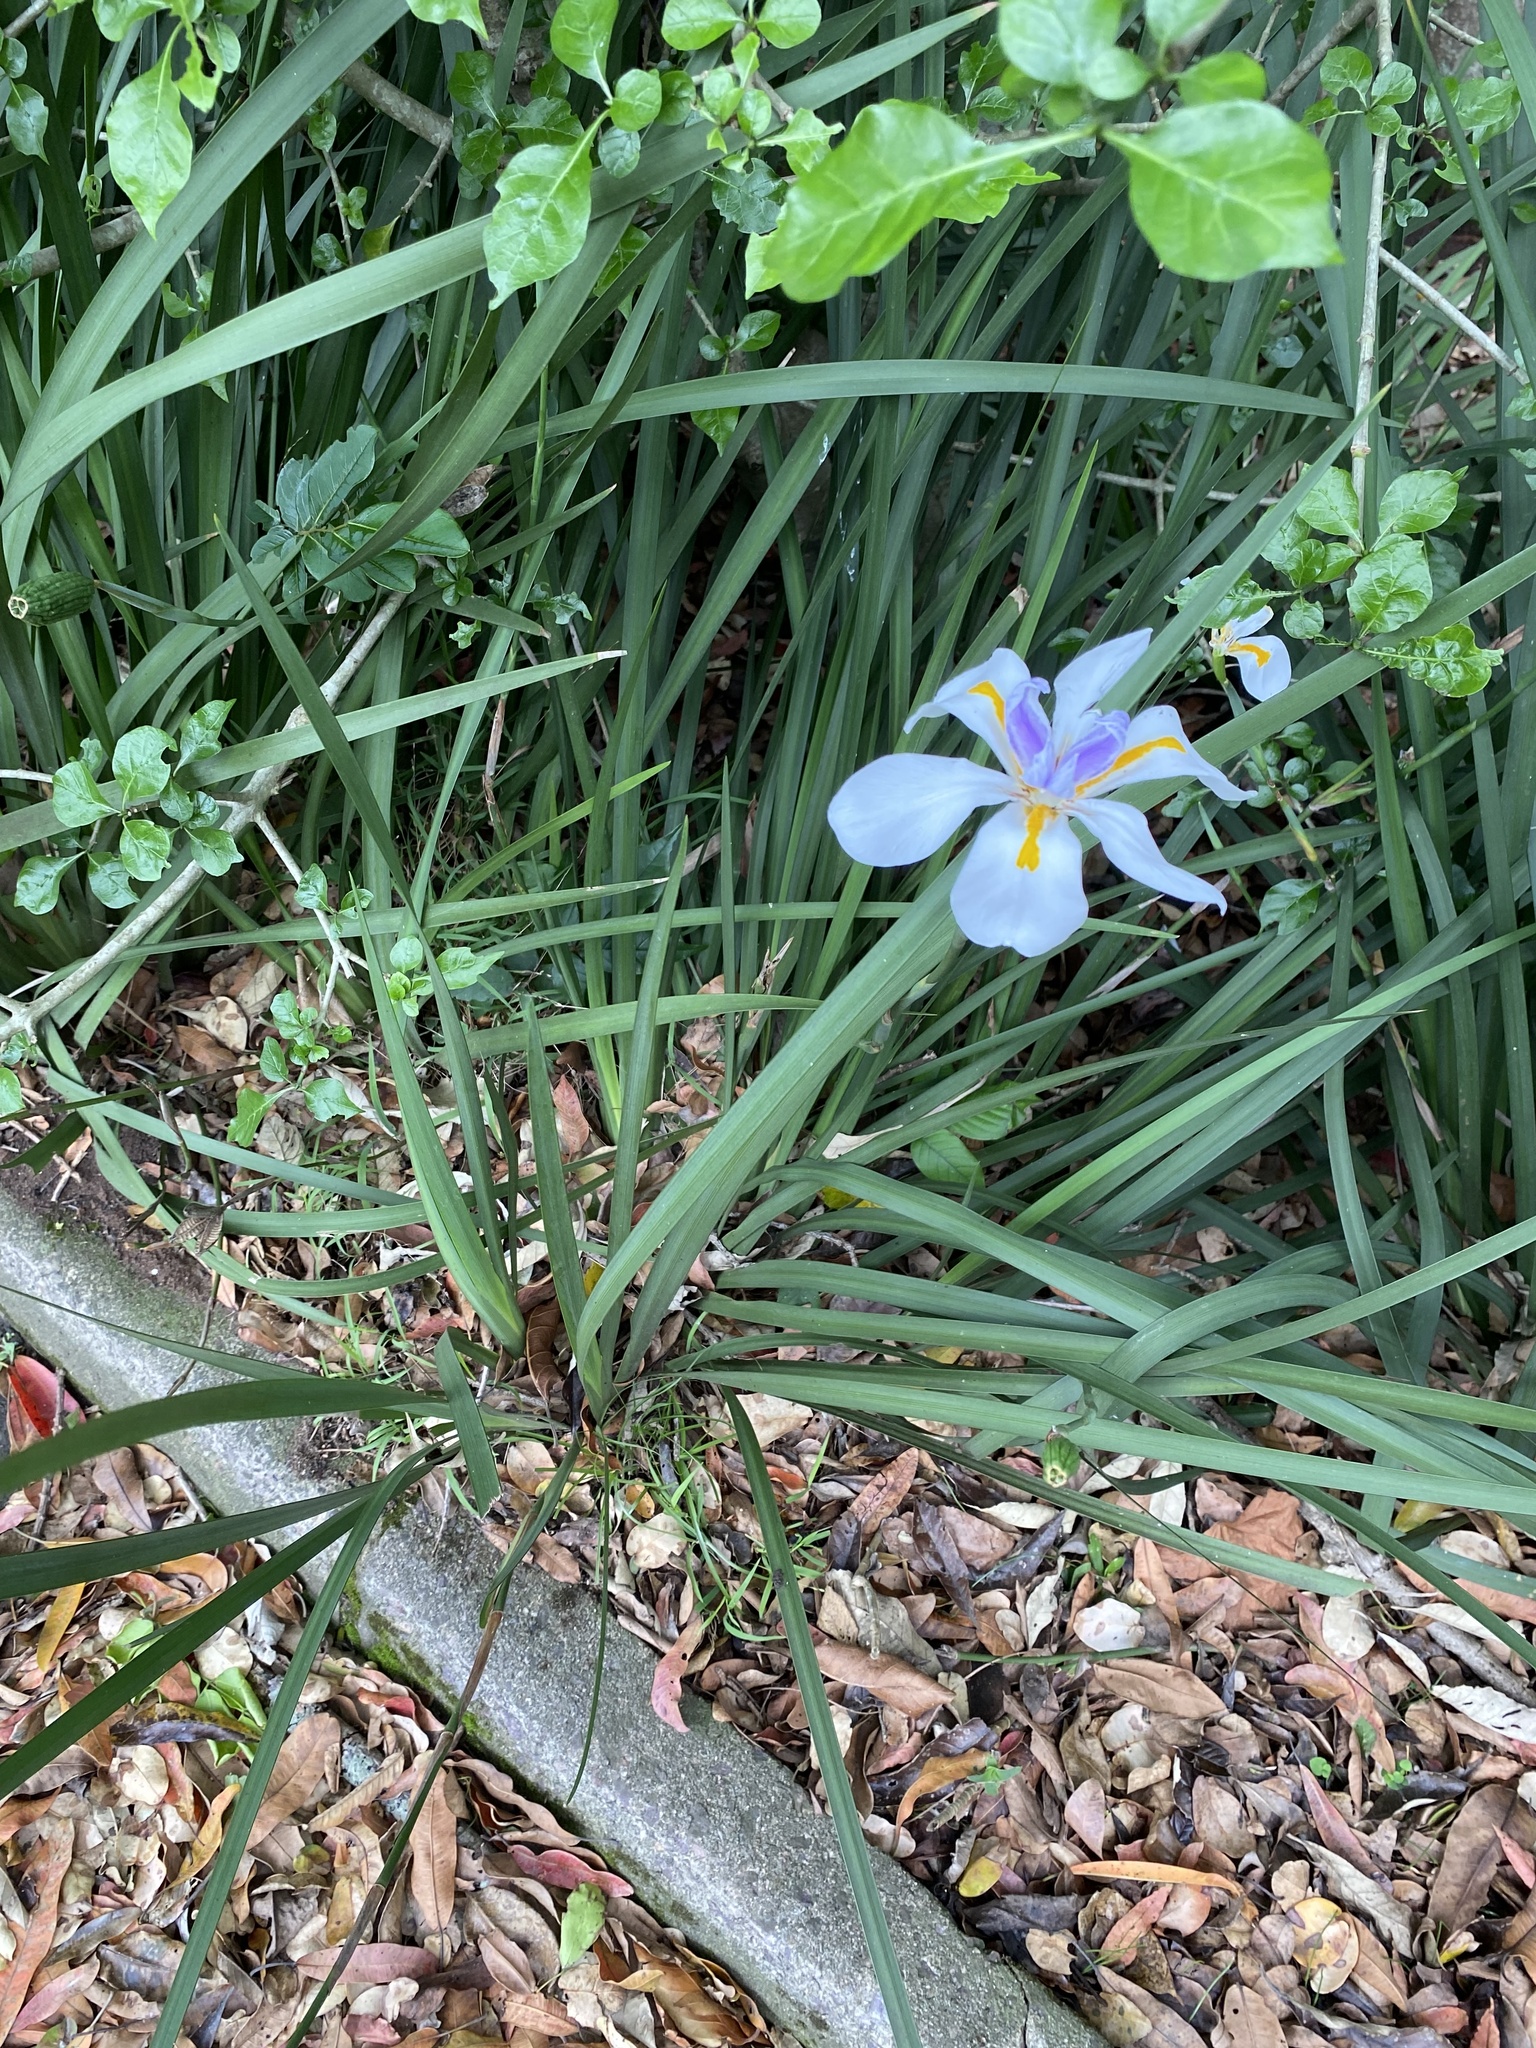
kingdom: Plantae
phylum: Tracheophyta
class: Liliopsida
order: Asparagales
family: Iridaceae
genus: Dietes
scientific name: Dietes grandiflora
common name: Wild iris
